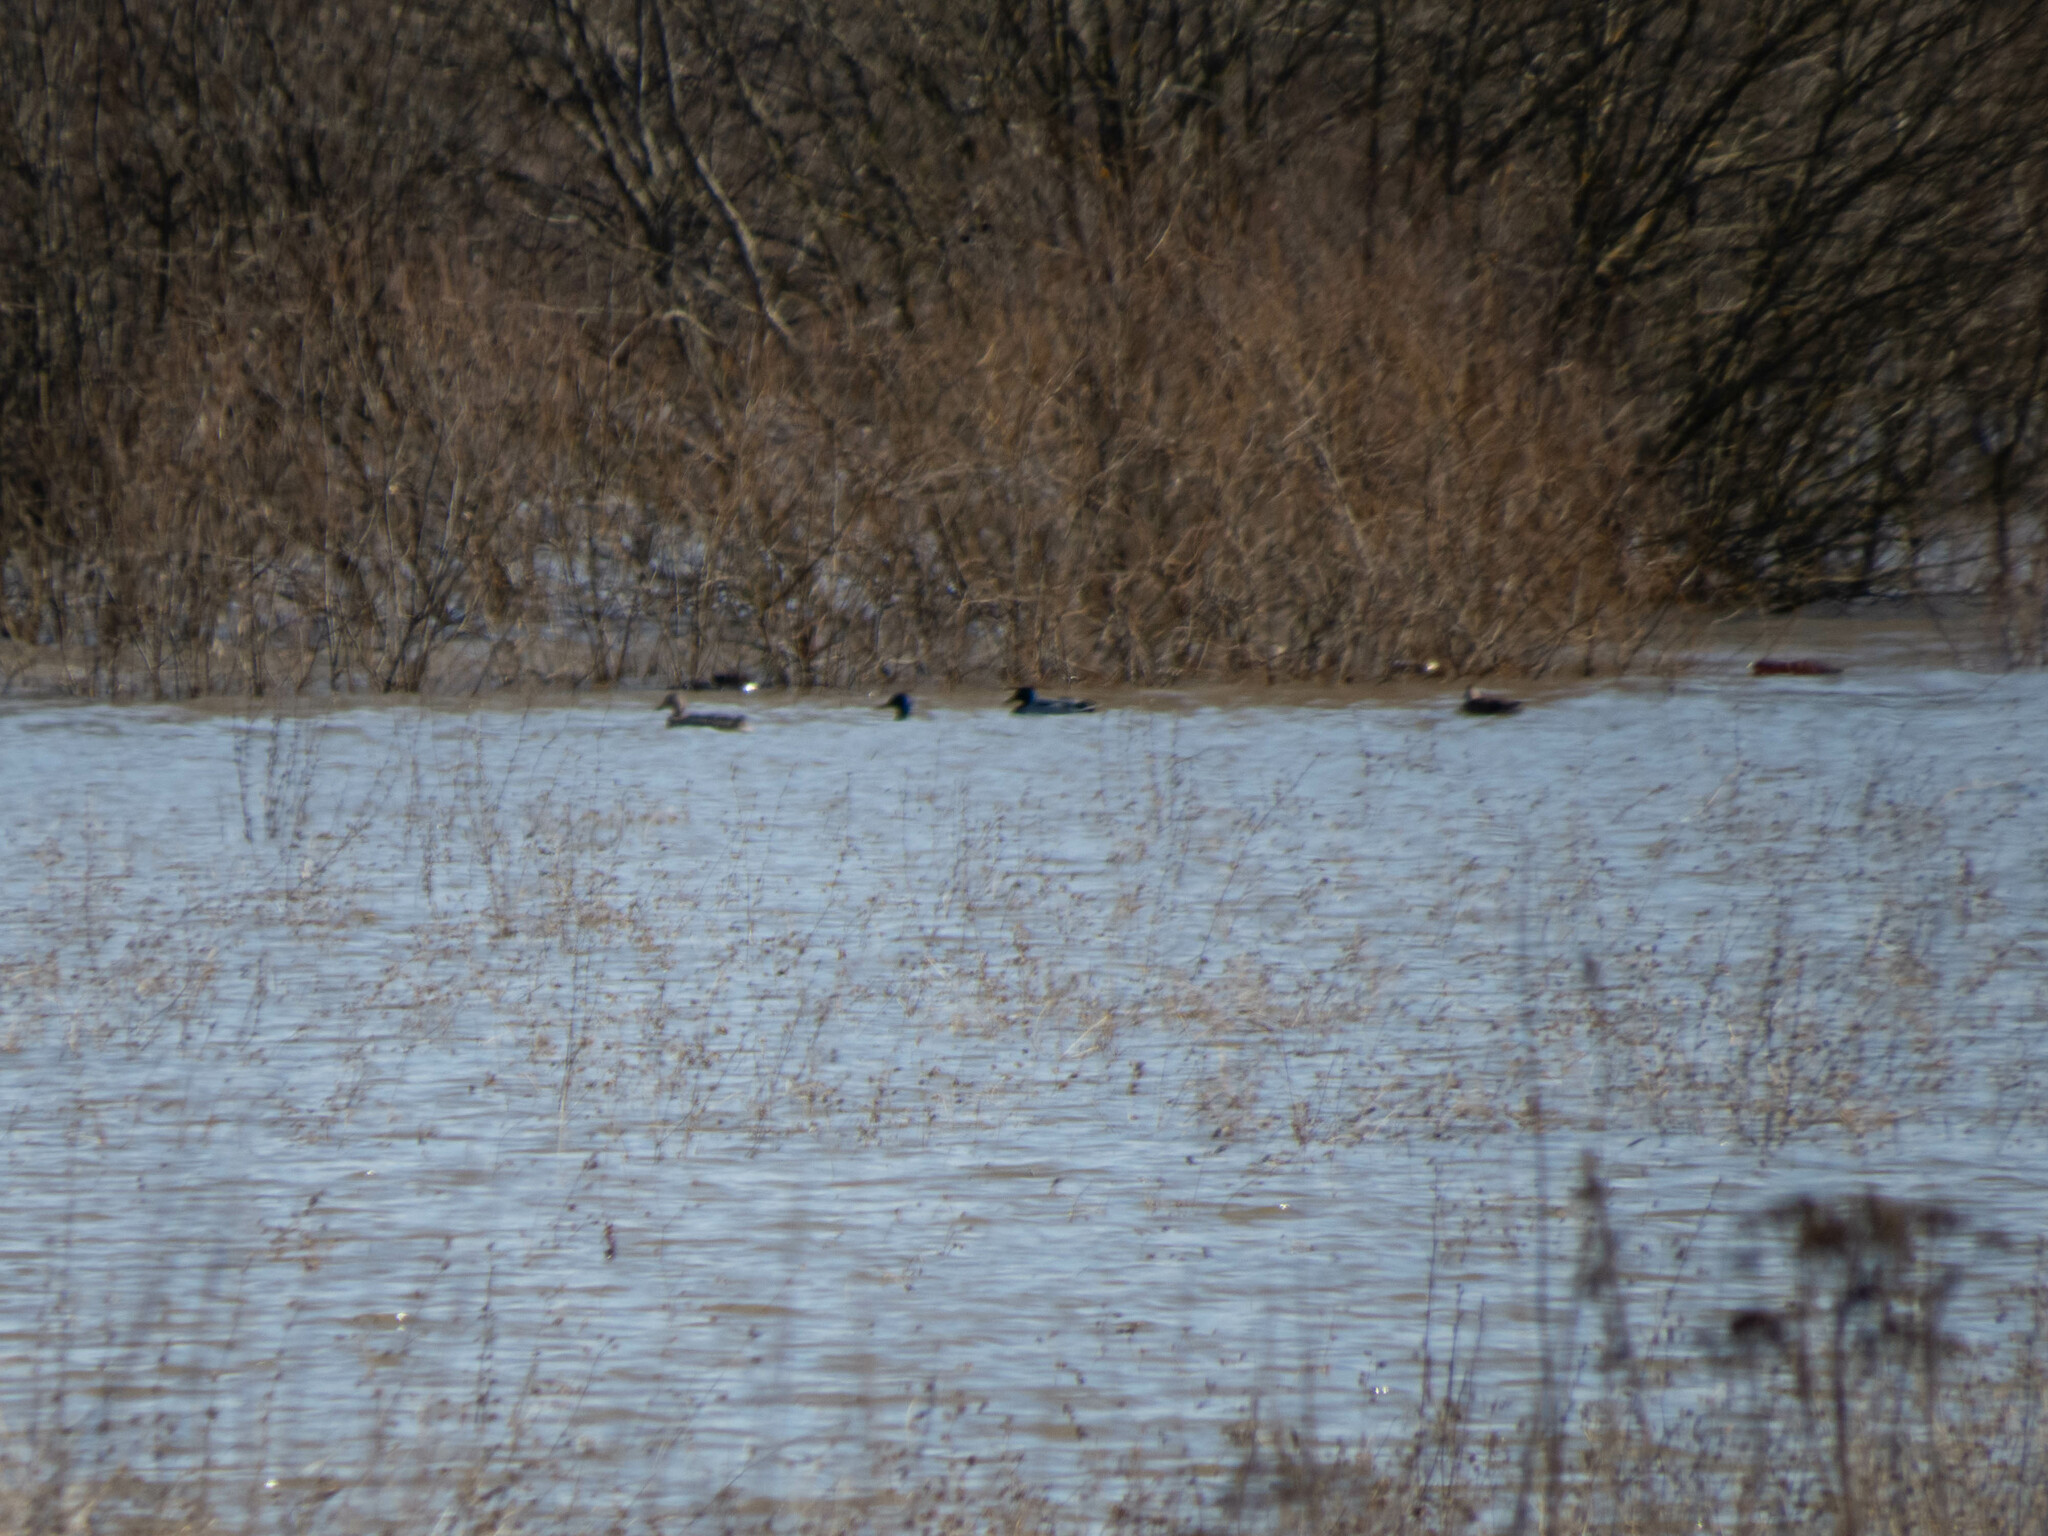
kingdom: Animalia
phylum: Chordata
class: Aves
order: Anseriformes
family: Anatidae
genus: Anas
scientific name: Anas platyrhynchos
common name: Mallard
